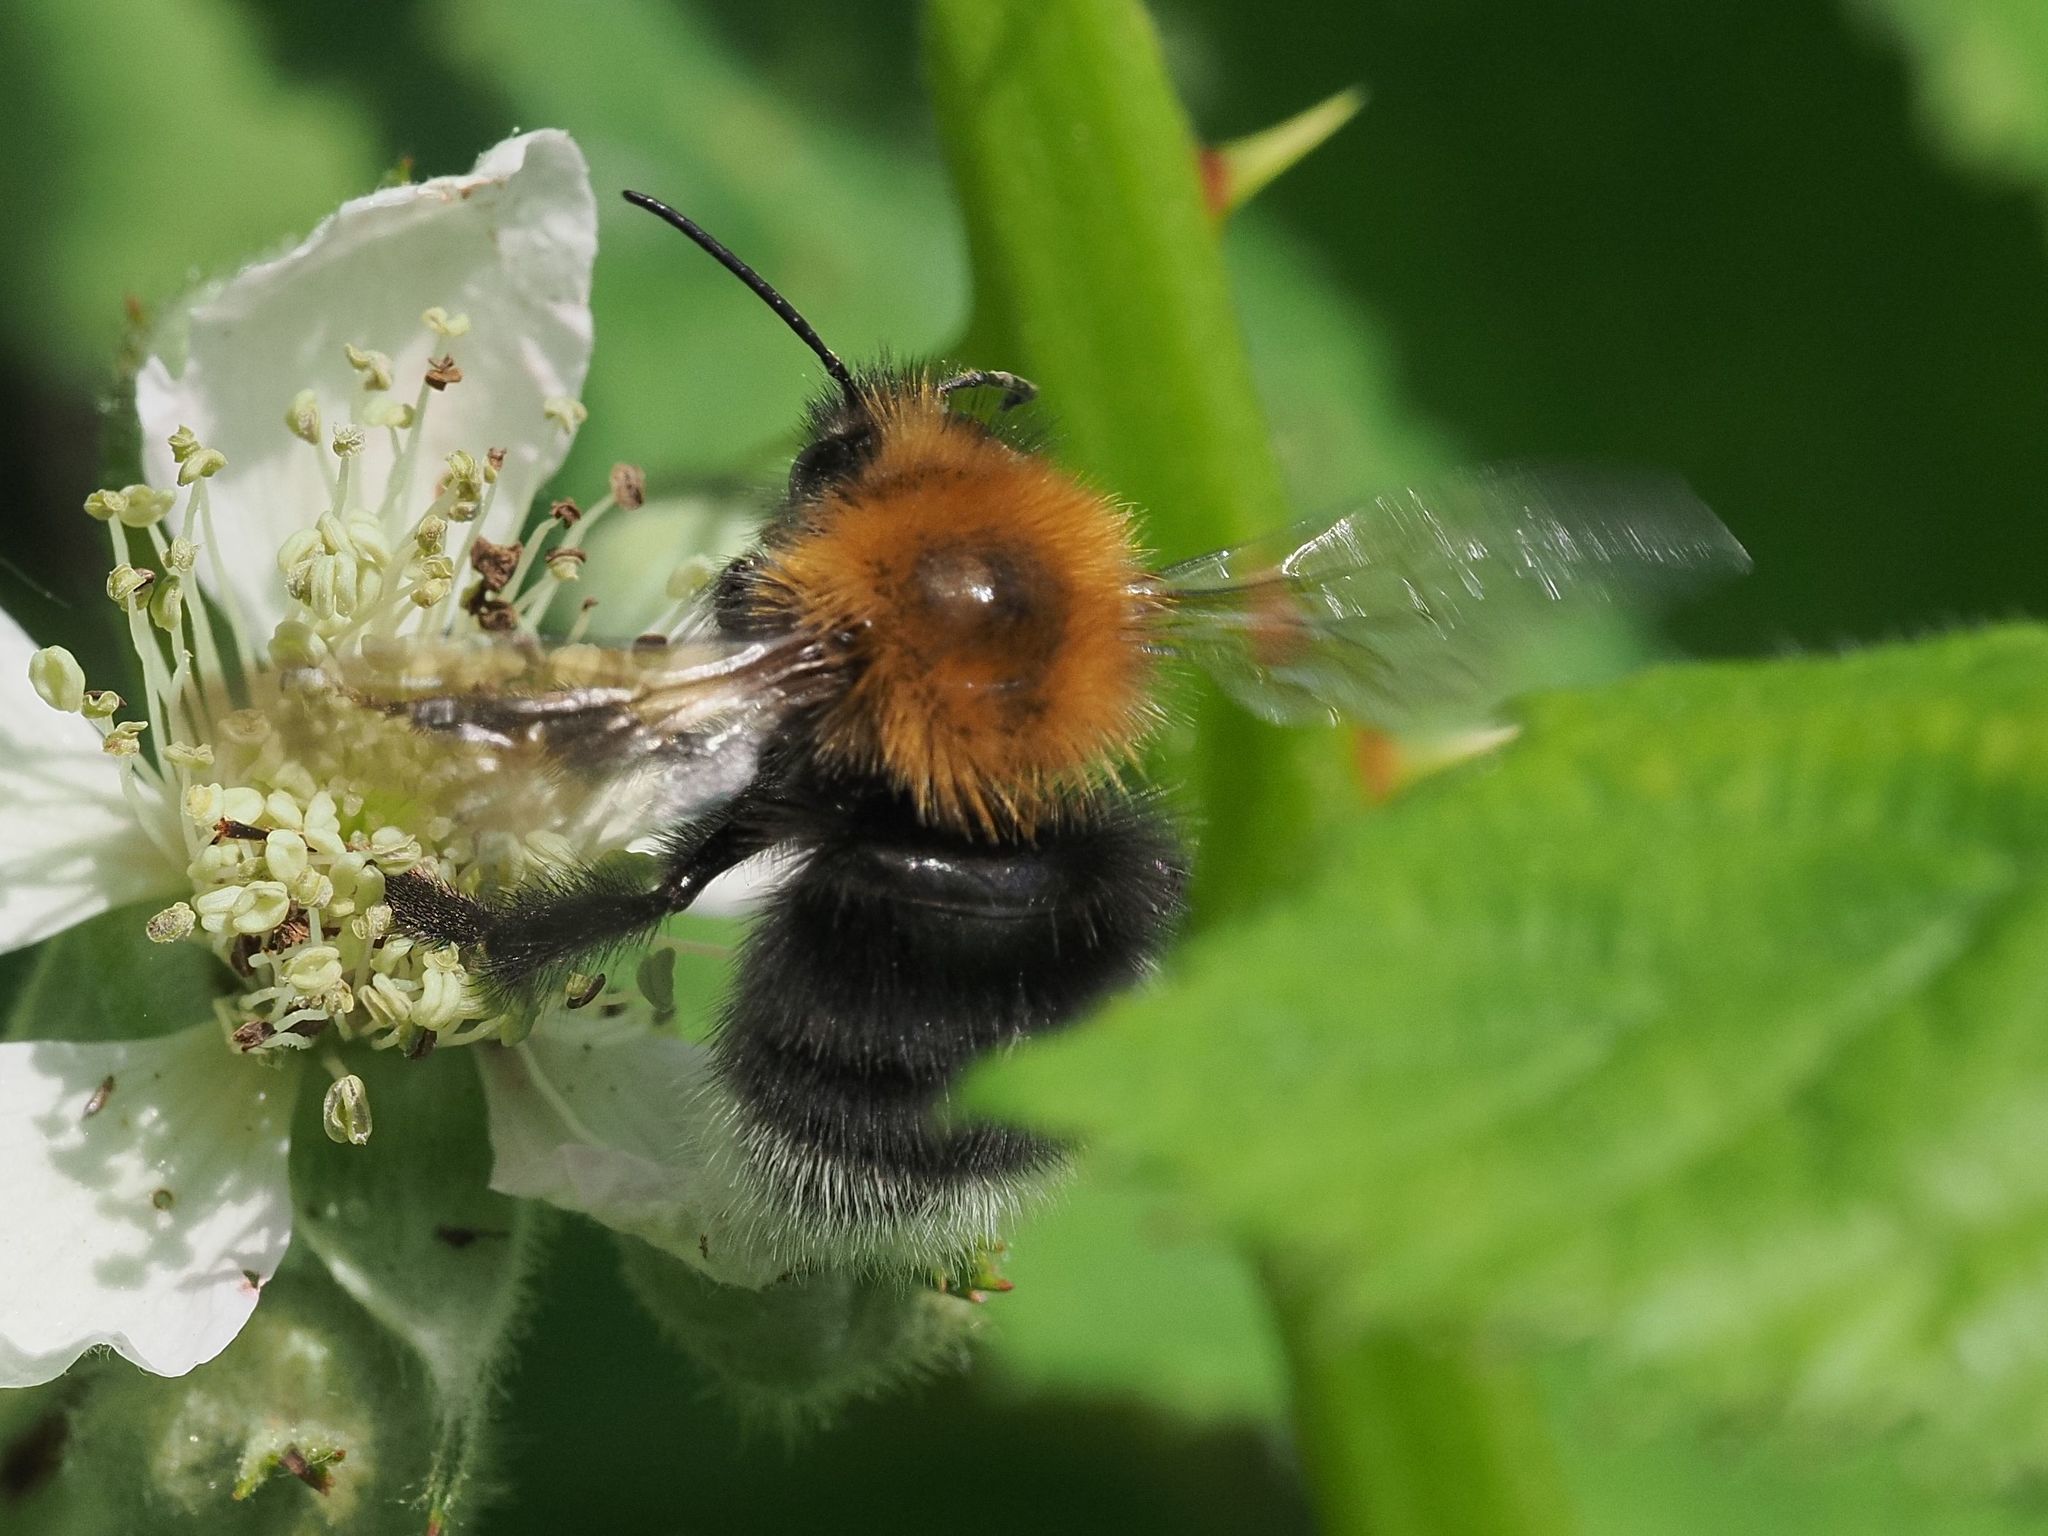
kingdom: Animalia
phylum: Arthropoda
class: Insecta
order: Hymenoptera
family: Apidae
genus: Bombus
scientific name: Bombus hypnorum
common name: New garden bumblebee
